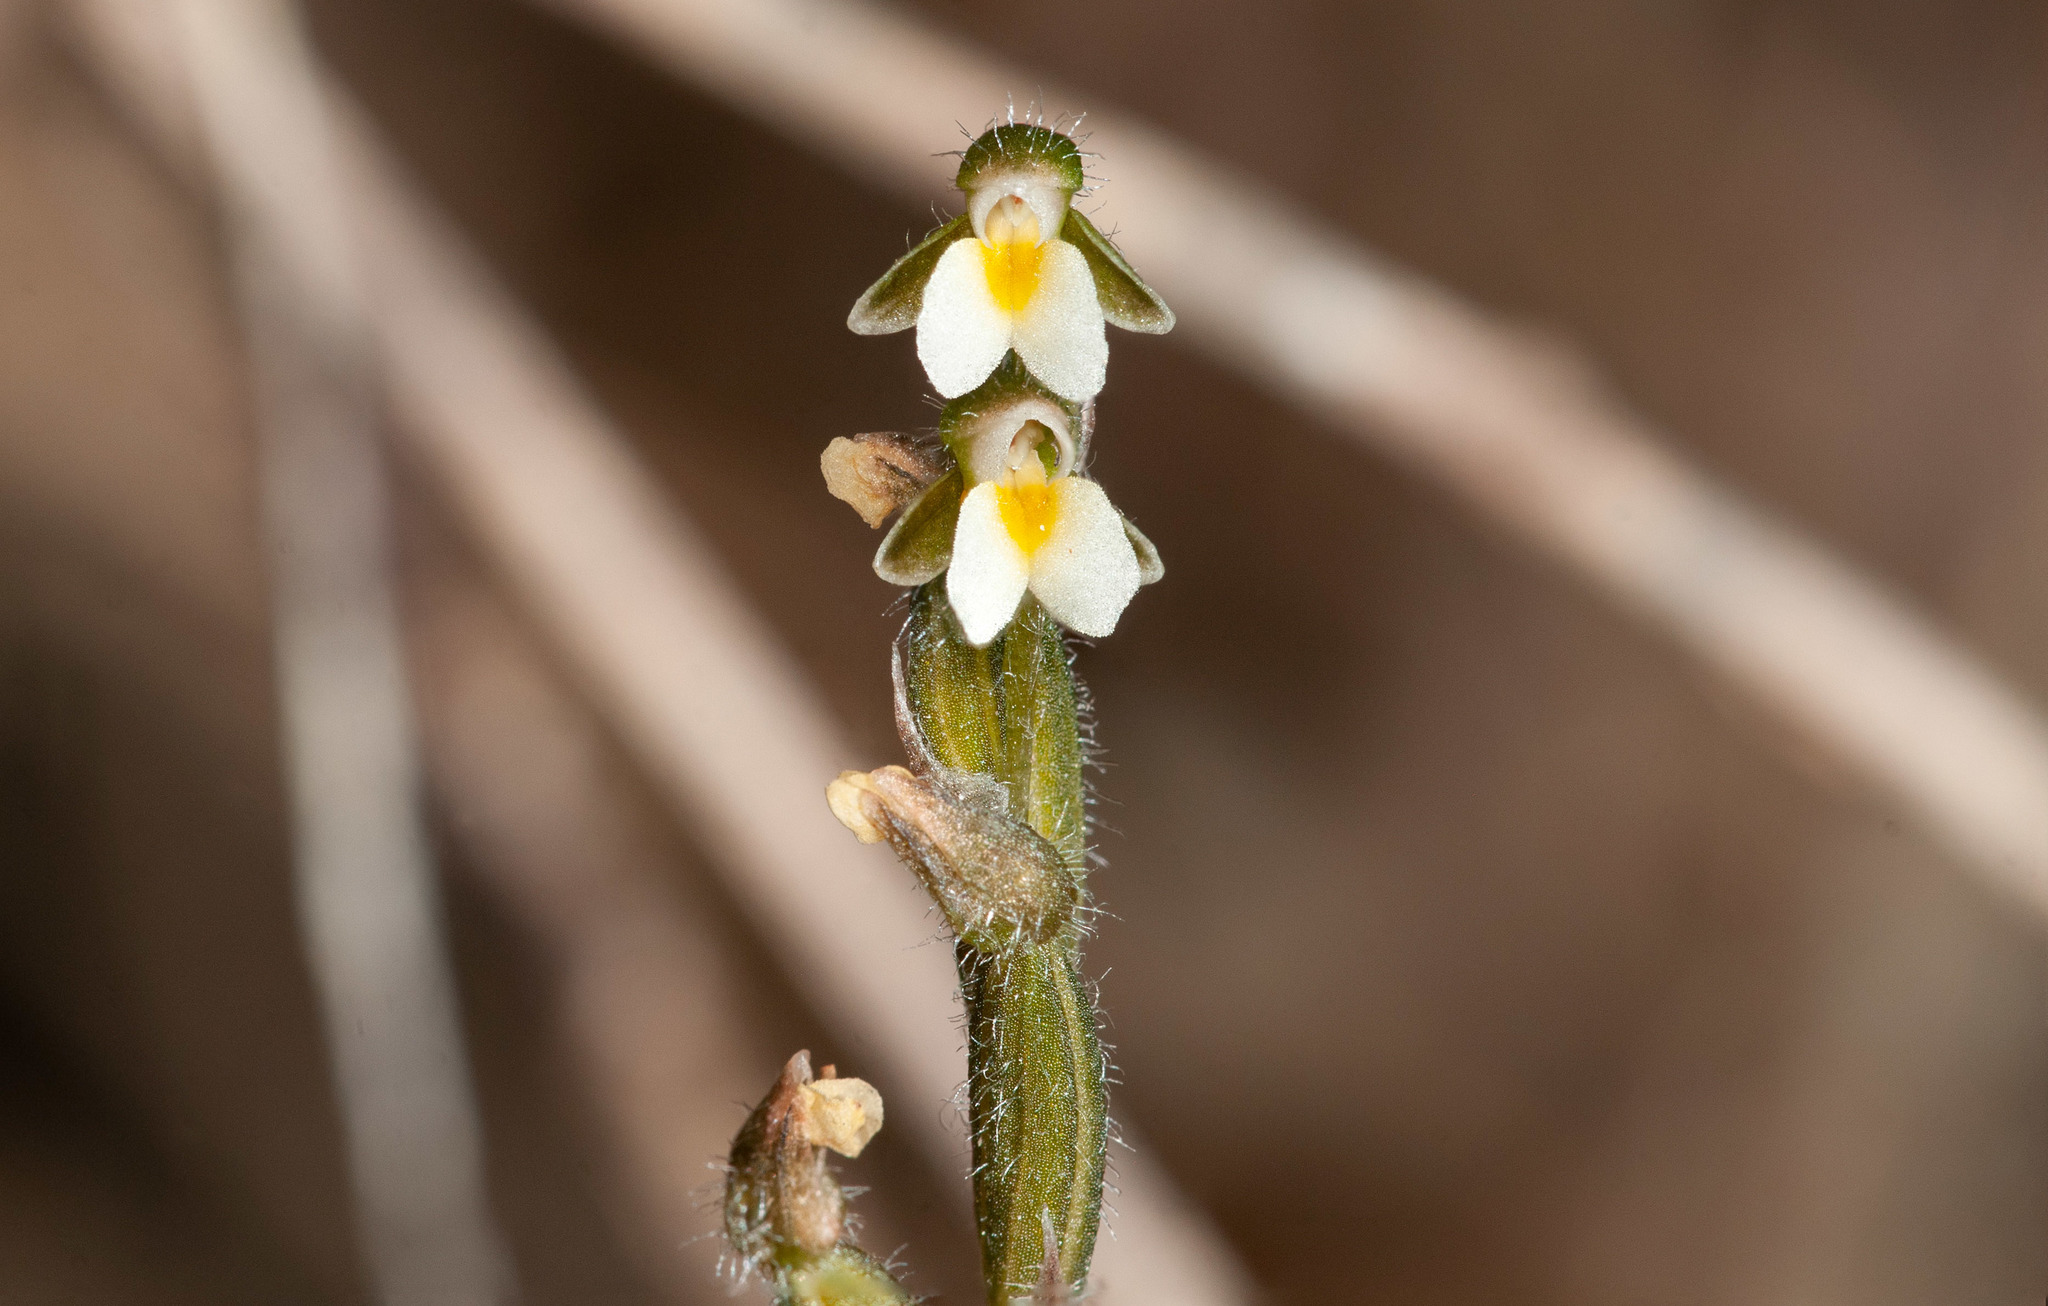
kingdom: Plantae
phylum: Tracheophyta
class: Liliopsida
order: Asparagales
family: Orchidaceae
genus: Zeuxine
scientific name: Zeuxine oblonga
